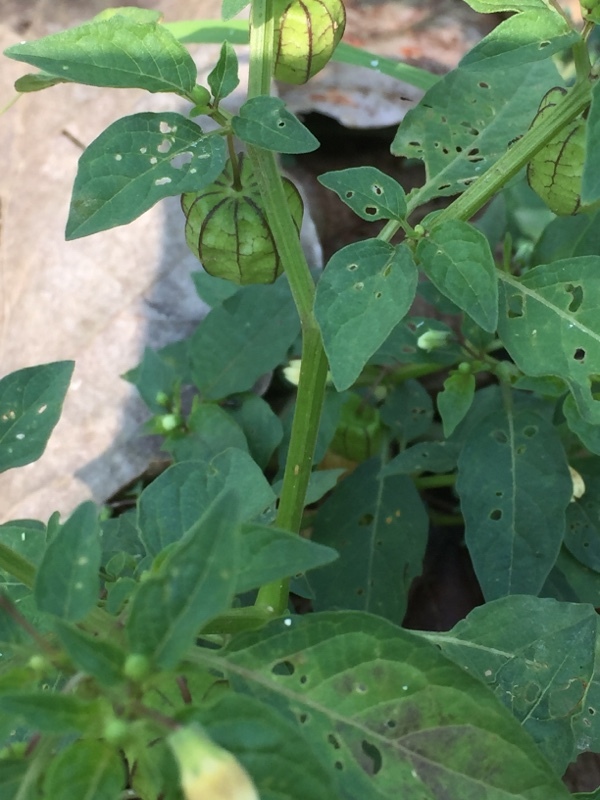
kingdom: Plantae
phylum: Tracheophyta
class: Magnoliopsida
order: Solanales
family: Solanaceae
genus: Physalis
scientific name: Physalis angulata
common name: Angular winter-cherry
